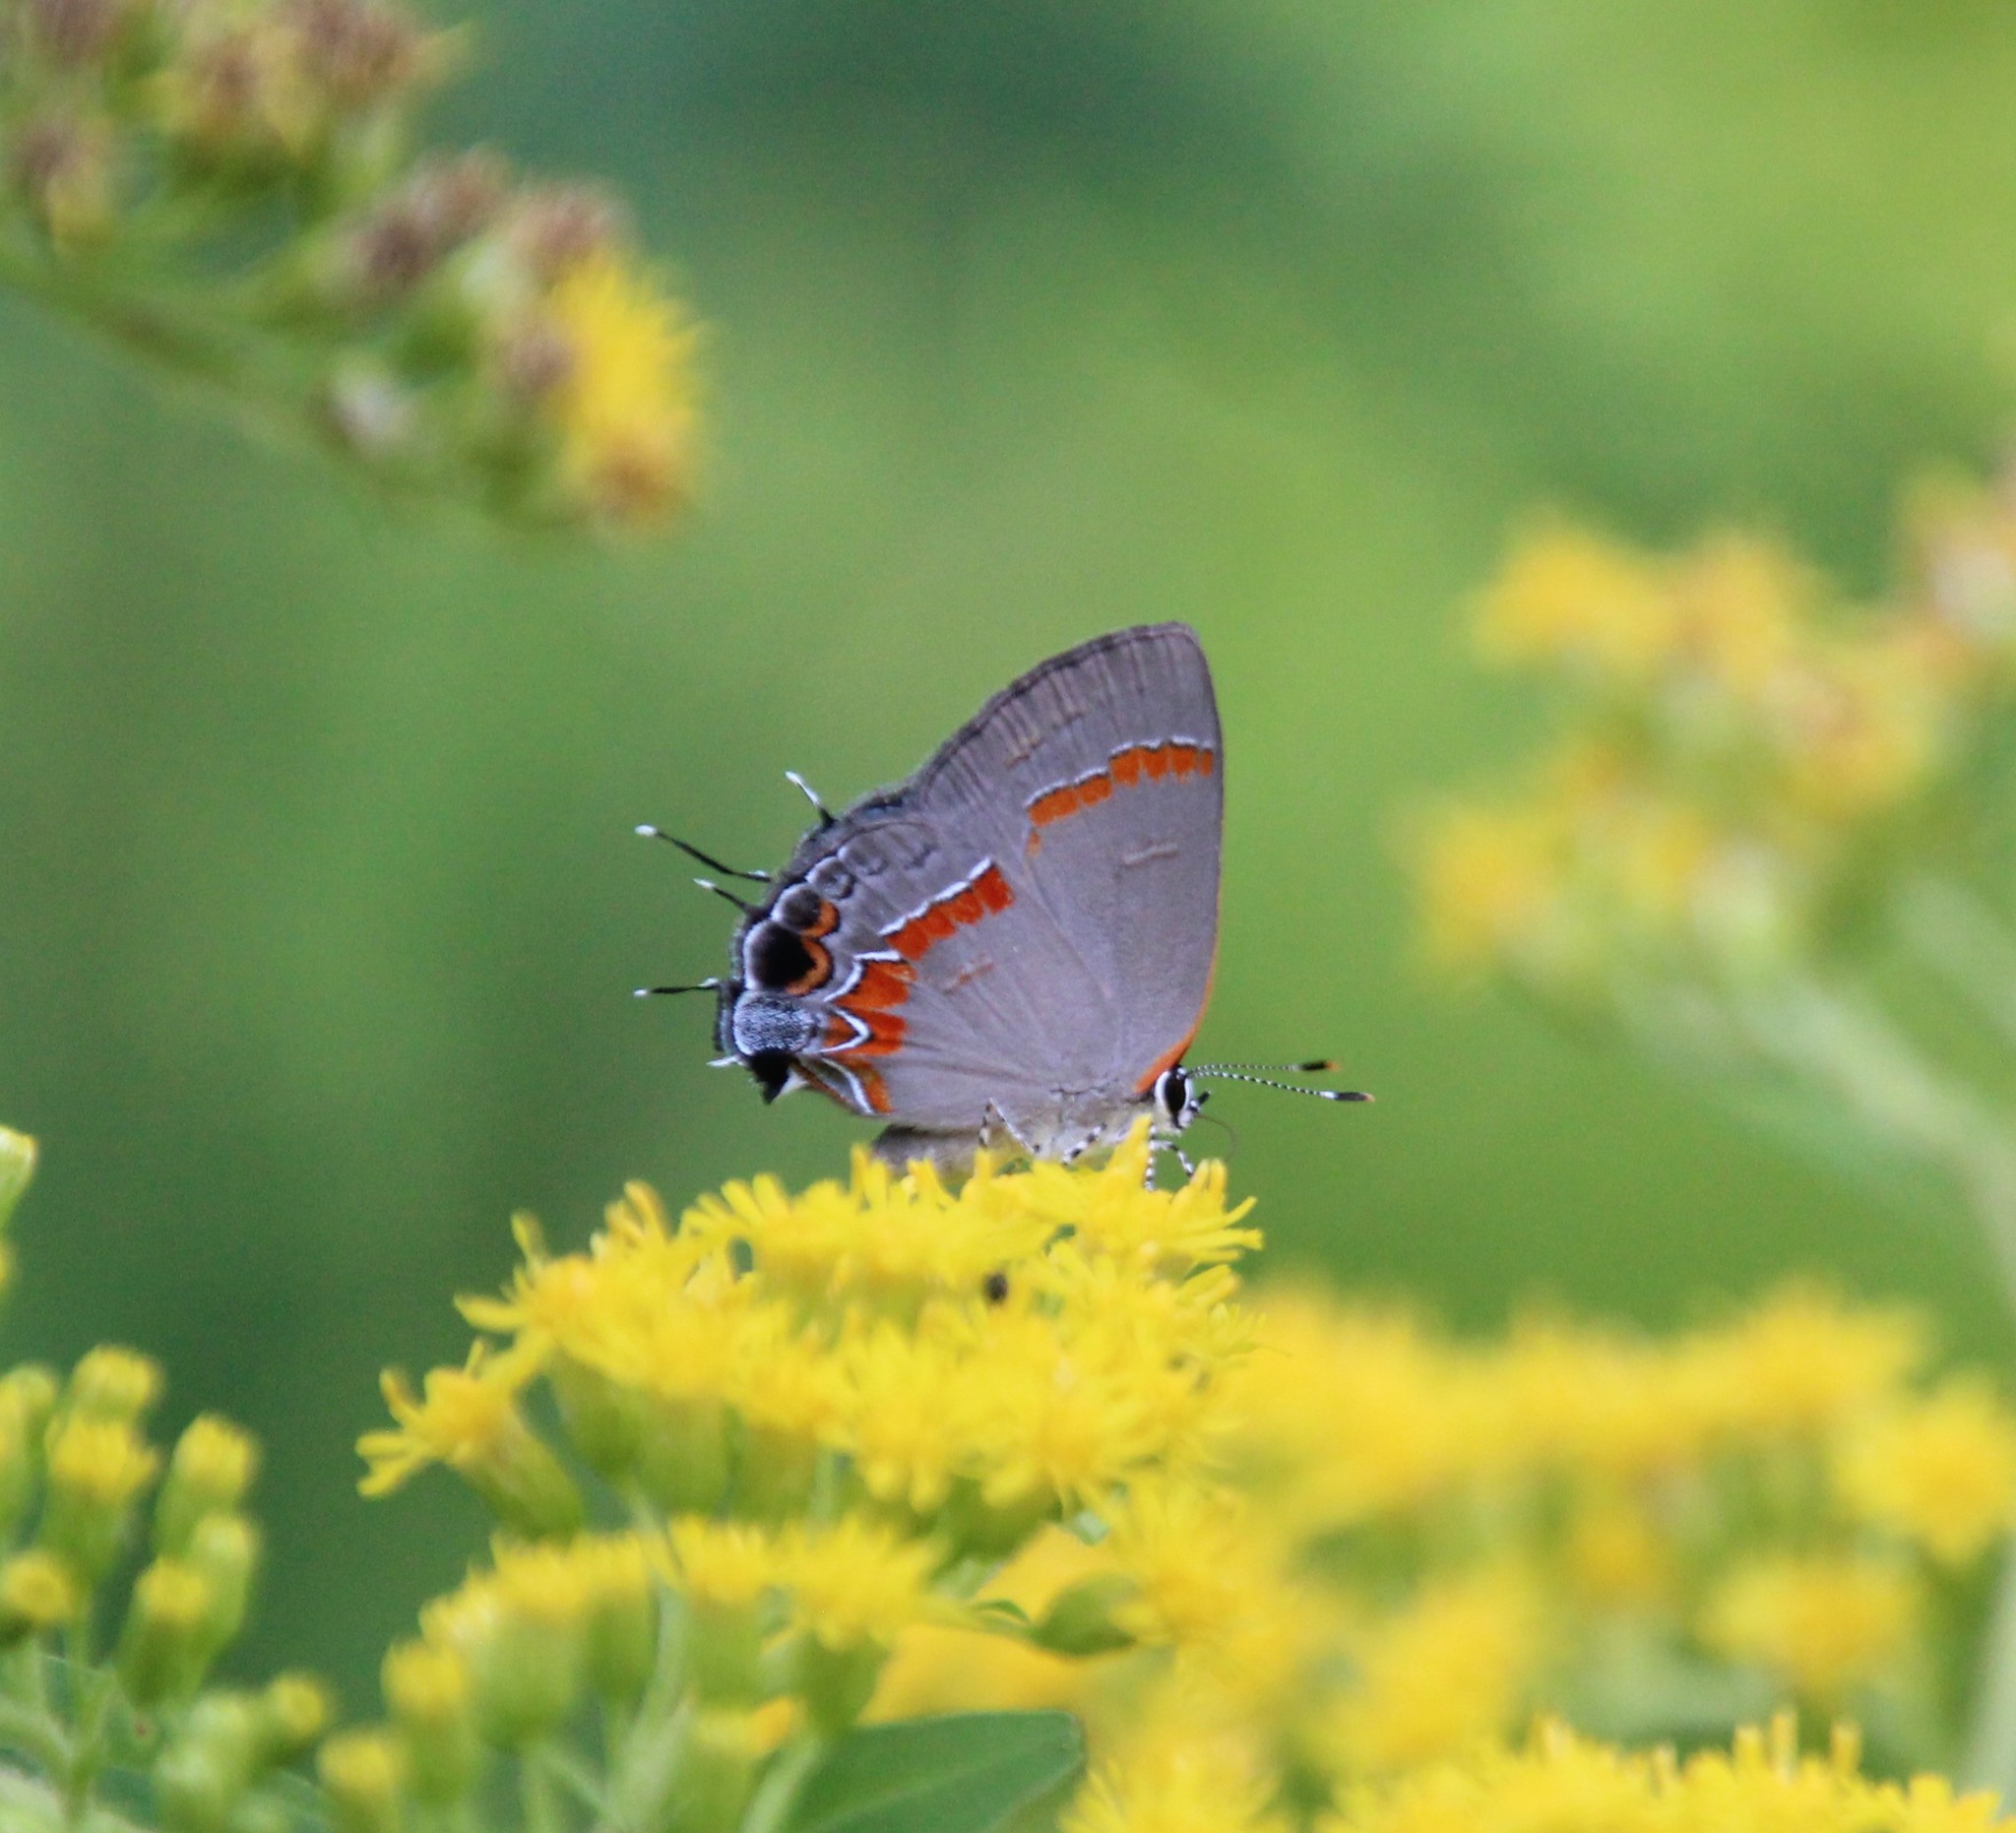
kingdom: Animalia
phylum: Arthropoda
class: Insecta
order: Lepidoptera
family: Lycaenidae
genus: Calycopis
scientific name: Calycopis cecrops
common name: Red-banded hairstreak
